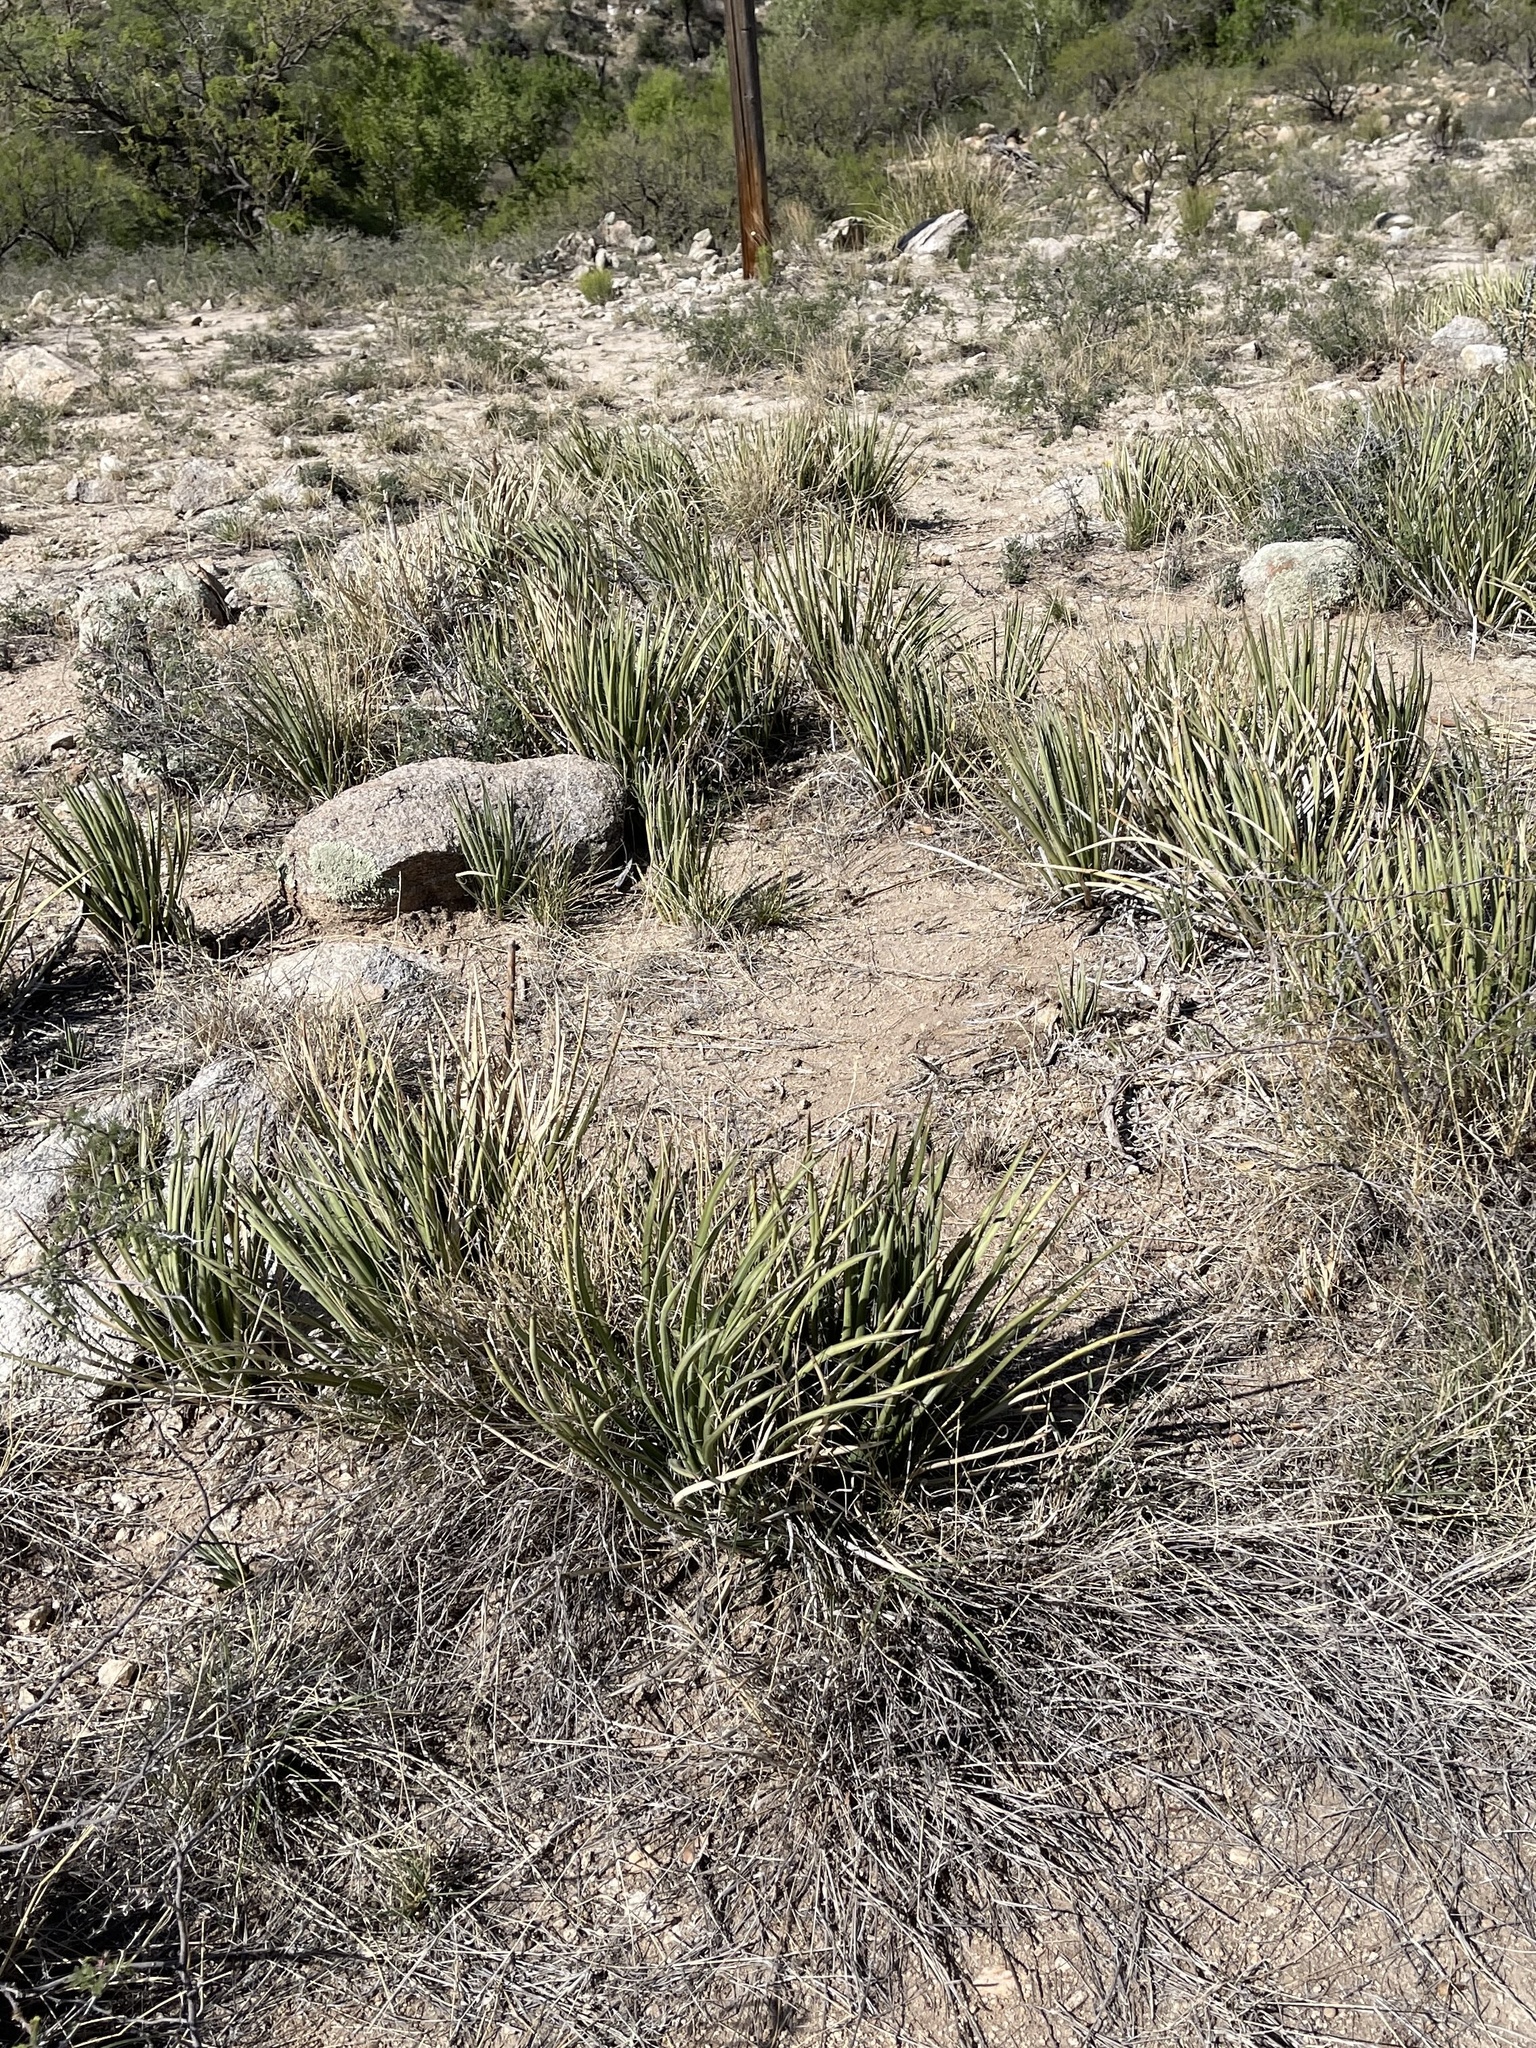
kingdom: Plantae
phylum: Tracheophyta
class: Liliopsida
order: Asparagales
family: Asparagaceae
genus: Agave
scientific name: Agave schottii
